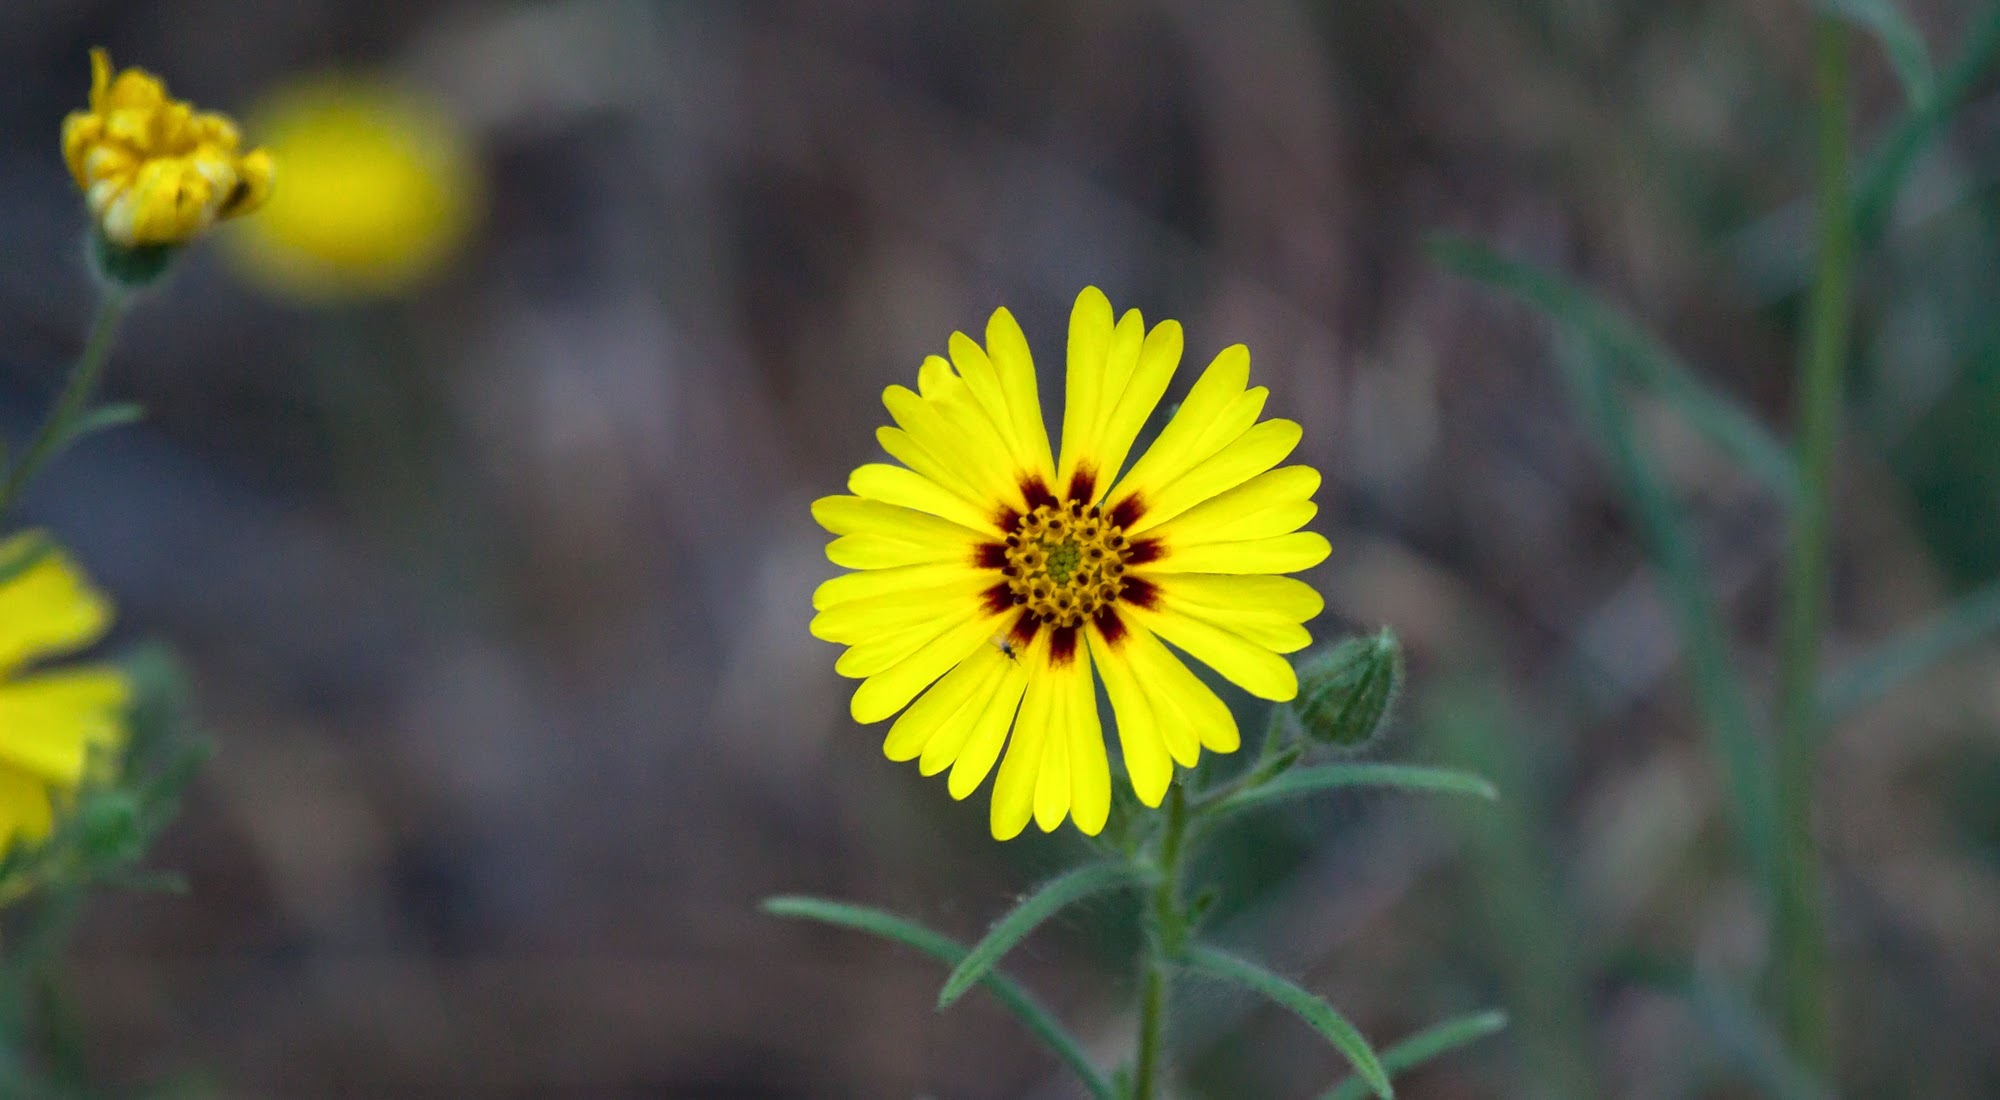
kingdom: Plantae
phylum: Tracheophyta
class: Magnoliopsida
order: Asterales
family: Asteraceae
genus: Madia
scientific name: Madia elegans
